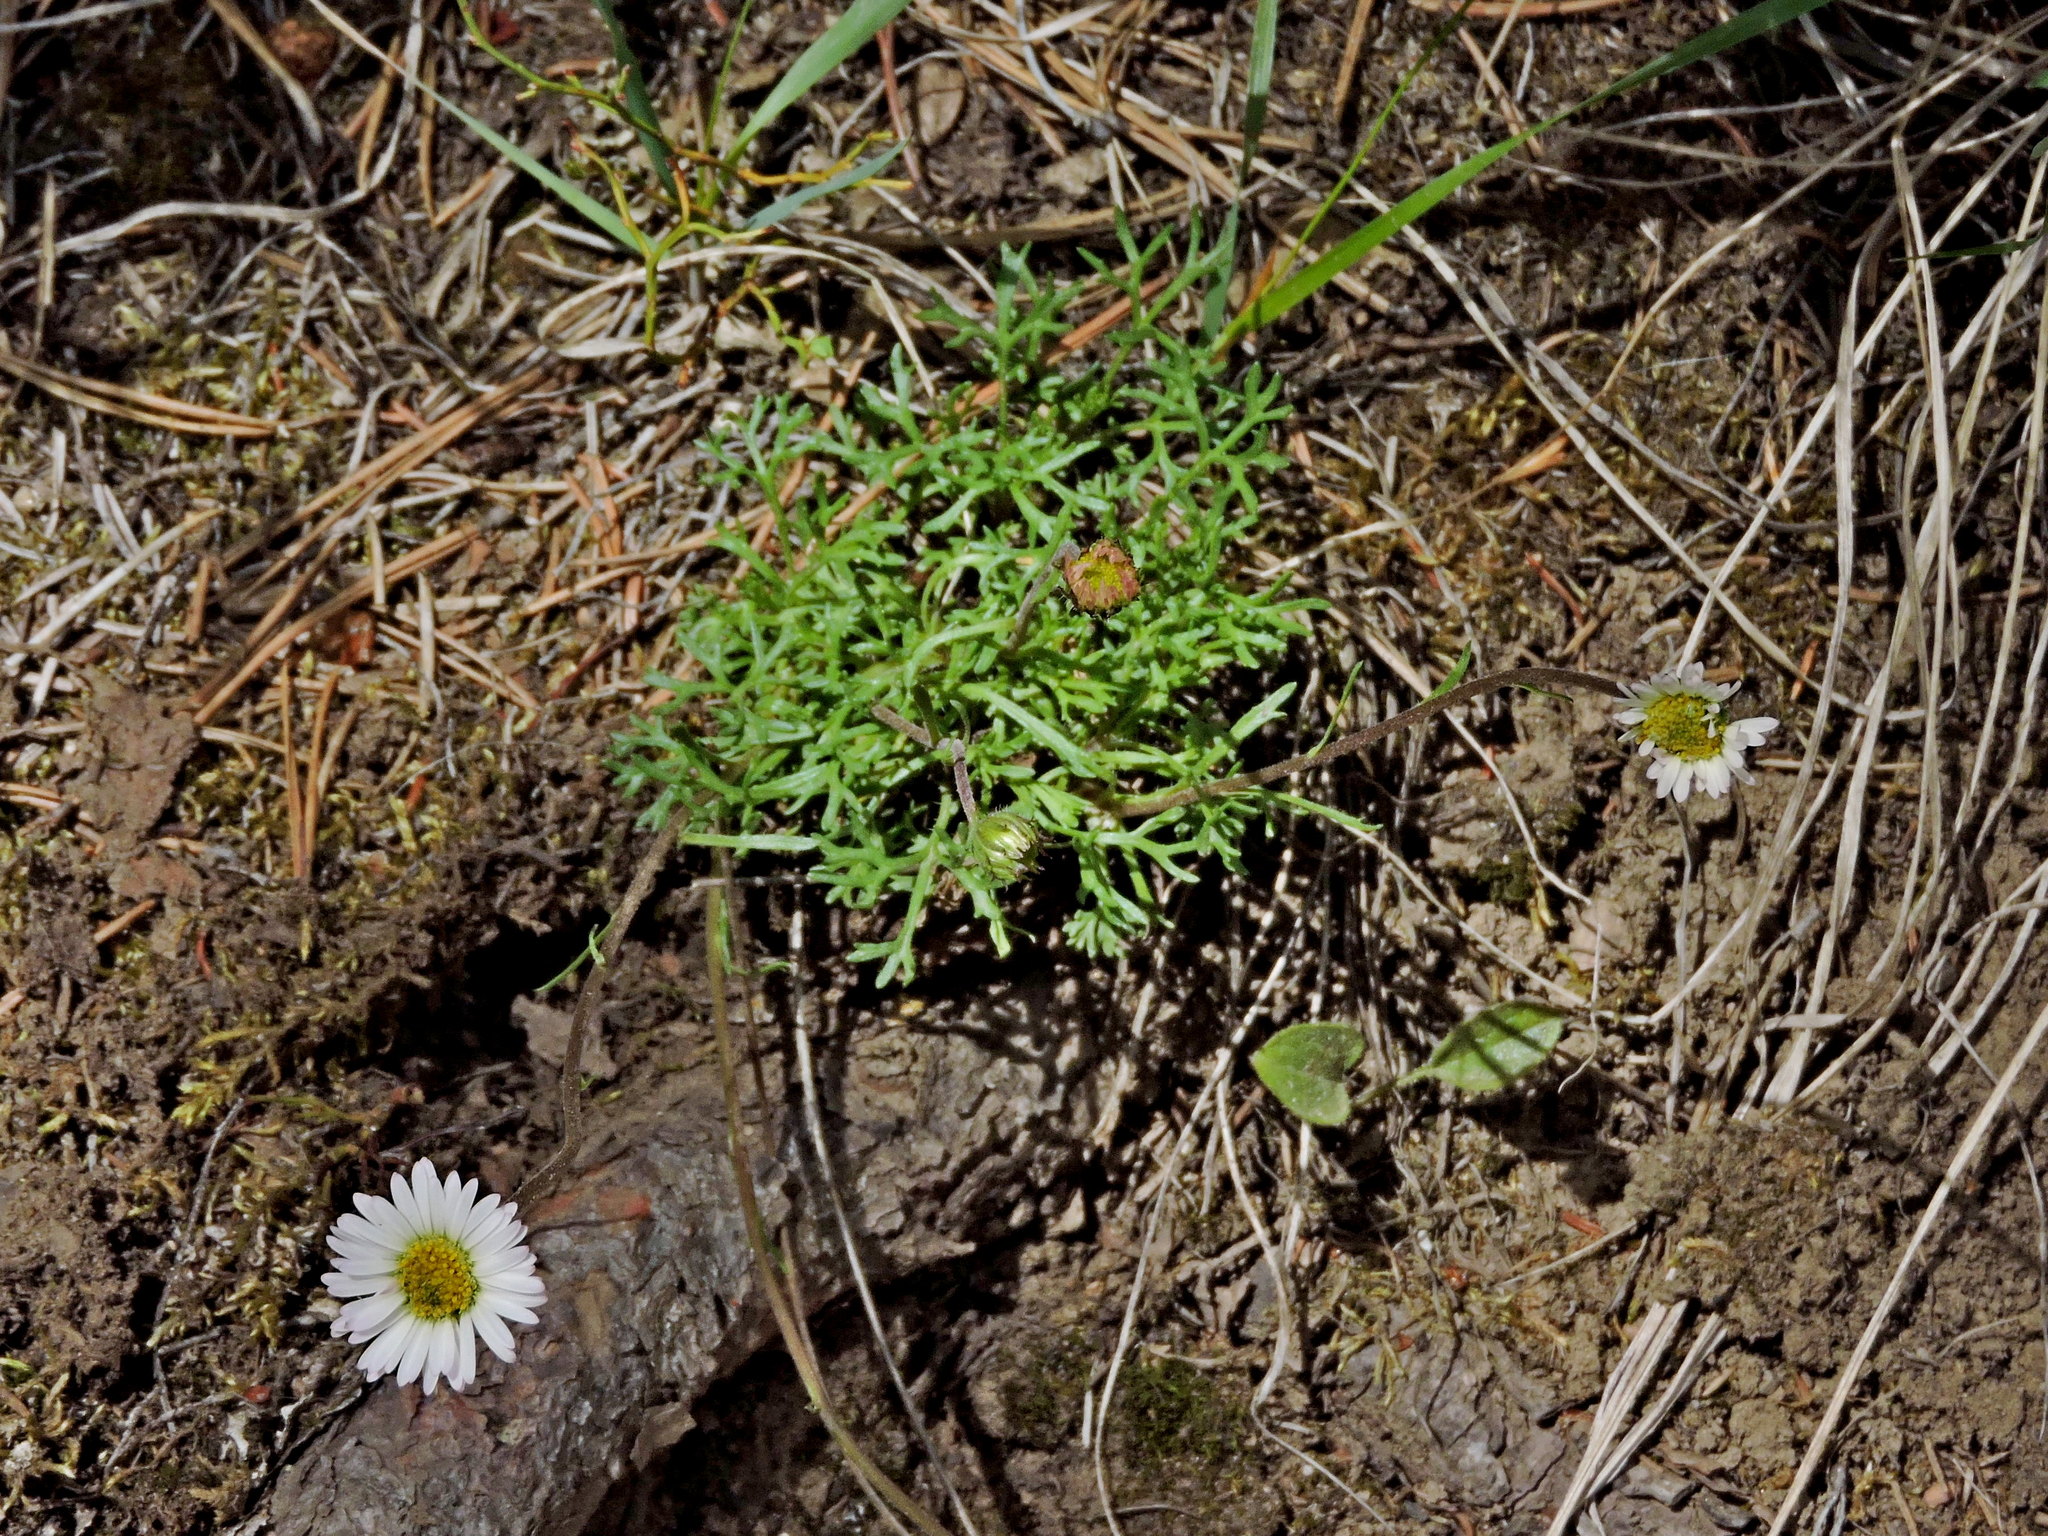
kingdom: Plantae
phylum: Tracheophyta
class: Magnoliopsida
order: Asterales
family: Asteraceae
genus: Erigeron
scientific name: Erigeron compositus
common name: Dwarf mountain fleabane
